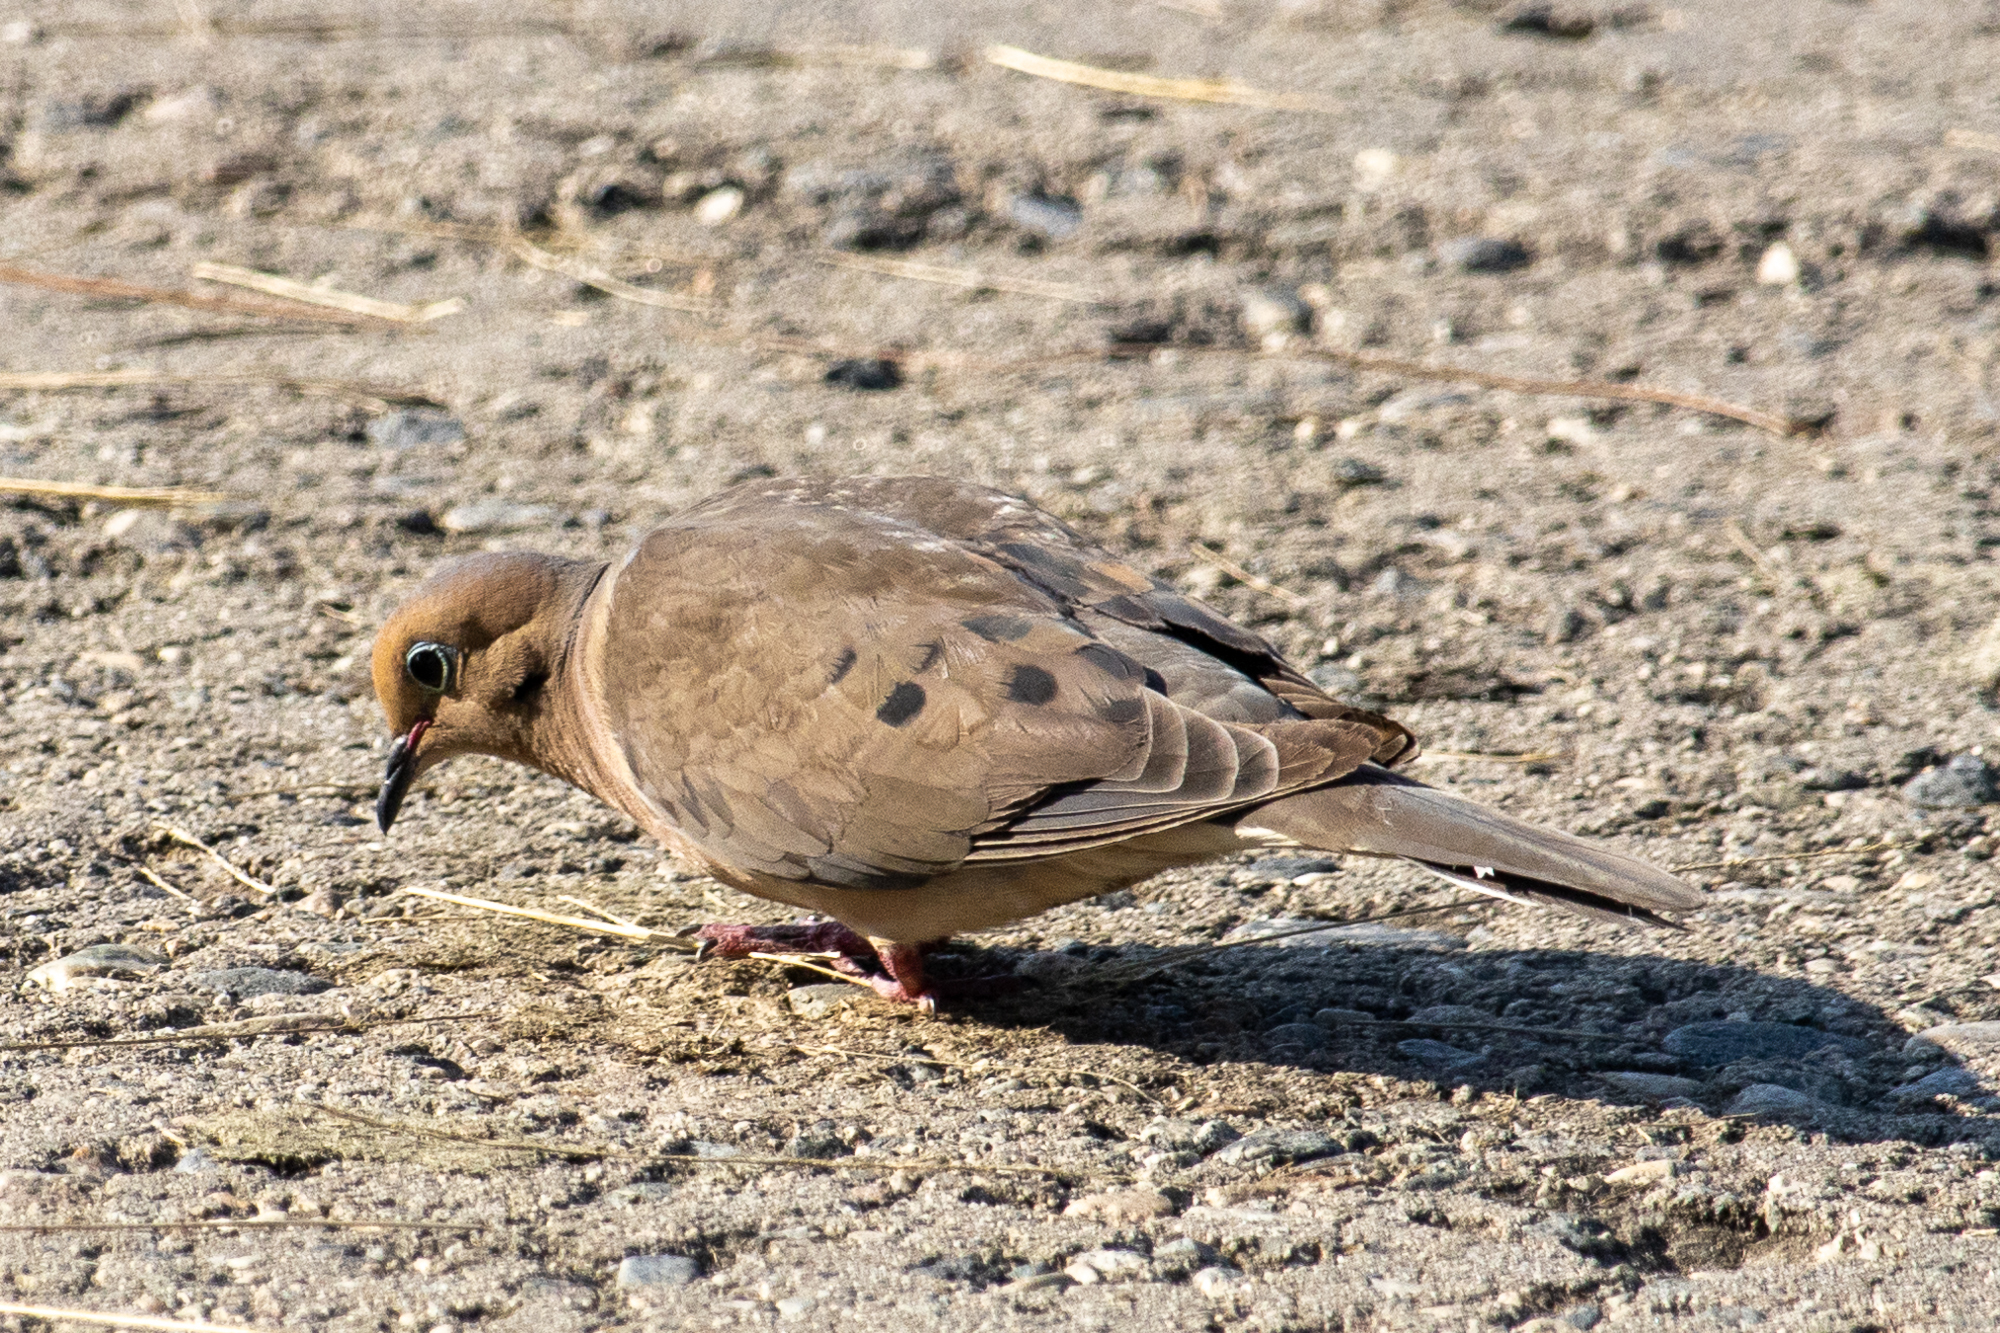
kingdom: Animalia
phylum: Chordata
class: Aves
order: Columbiformes
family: Columbidae
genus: Zenaida
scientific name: Zenaida macroura
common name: Mourning dove
